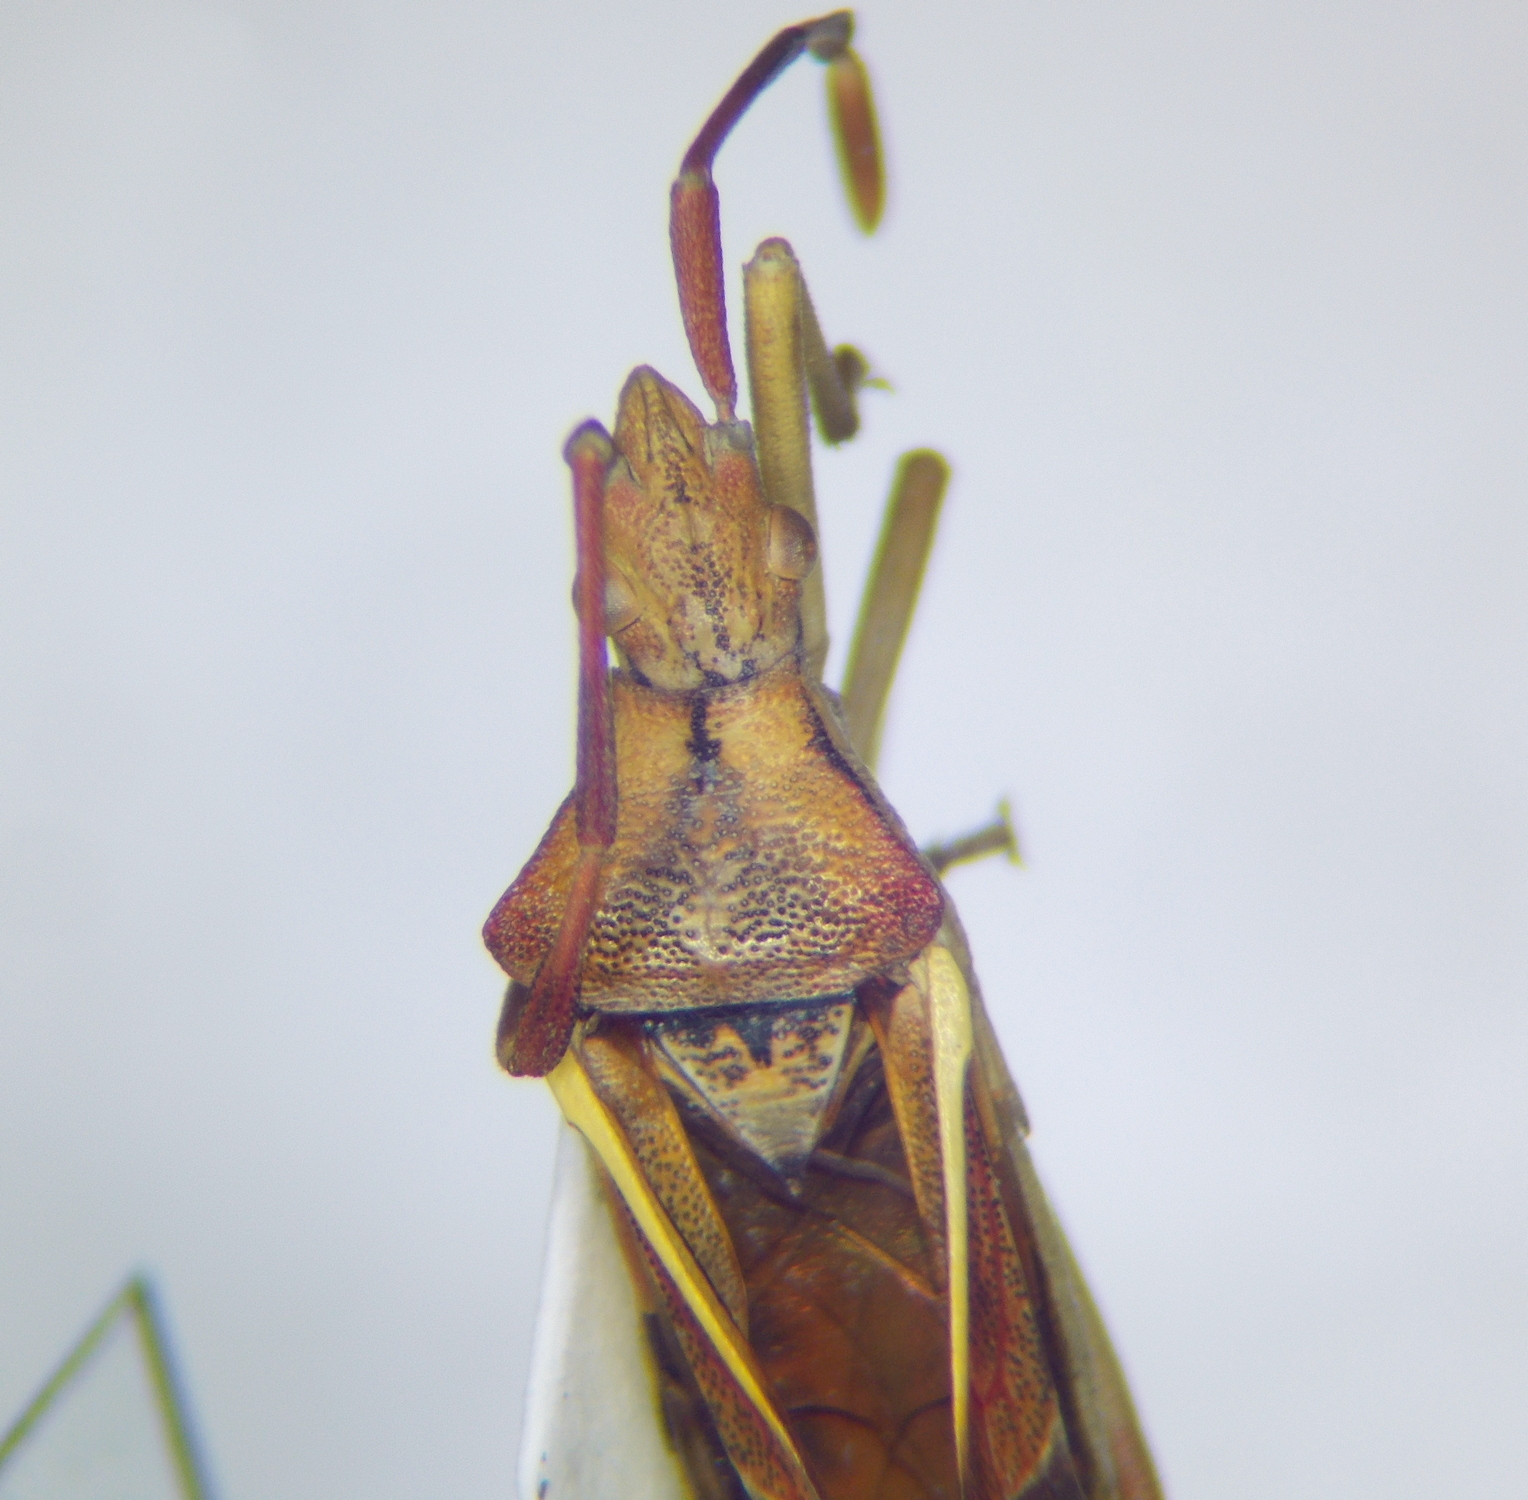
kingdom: Animalia
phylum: Arthropoda
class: Insecta
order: Hemiptera
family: Coreidae
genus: Gonocerus
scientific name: Gonocerus juniperi
